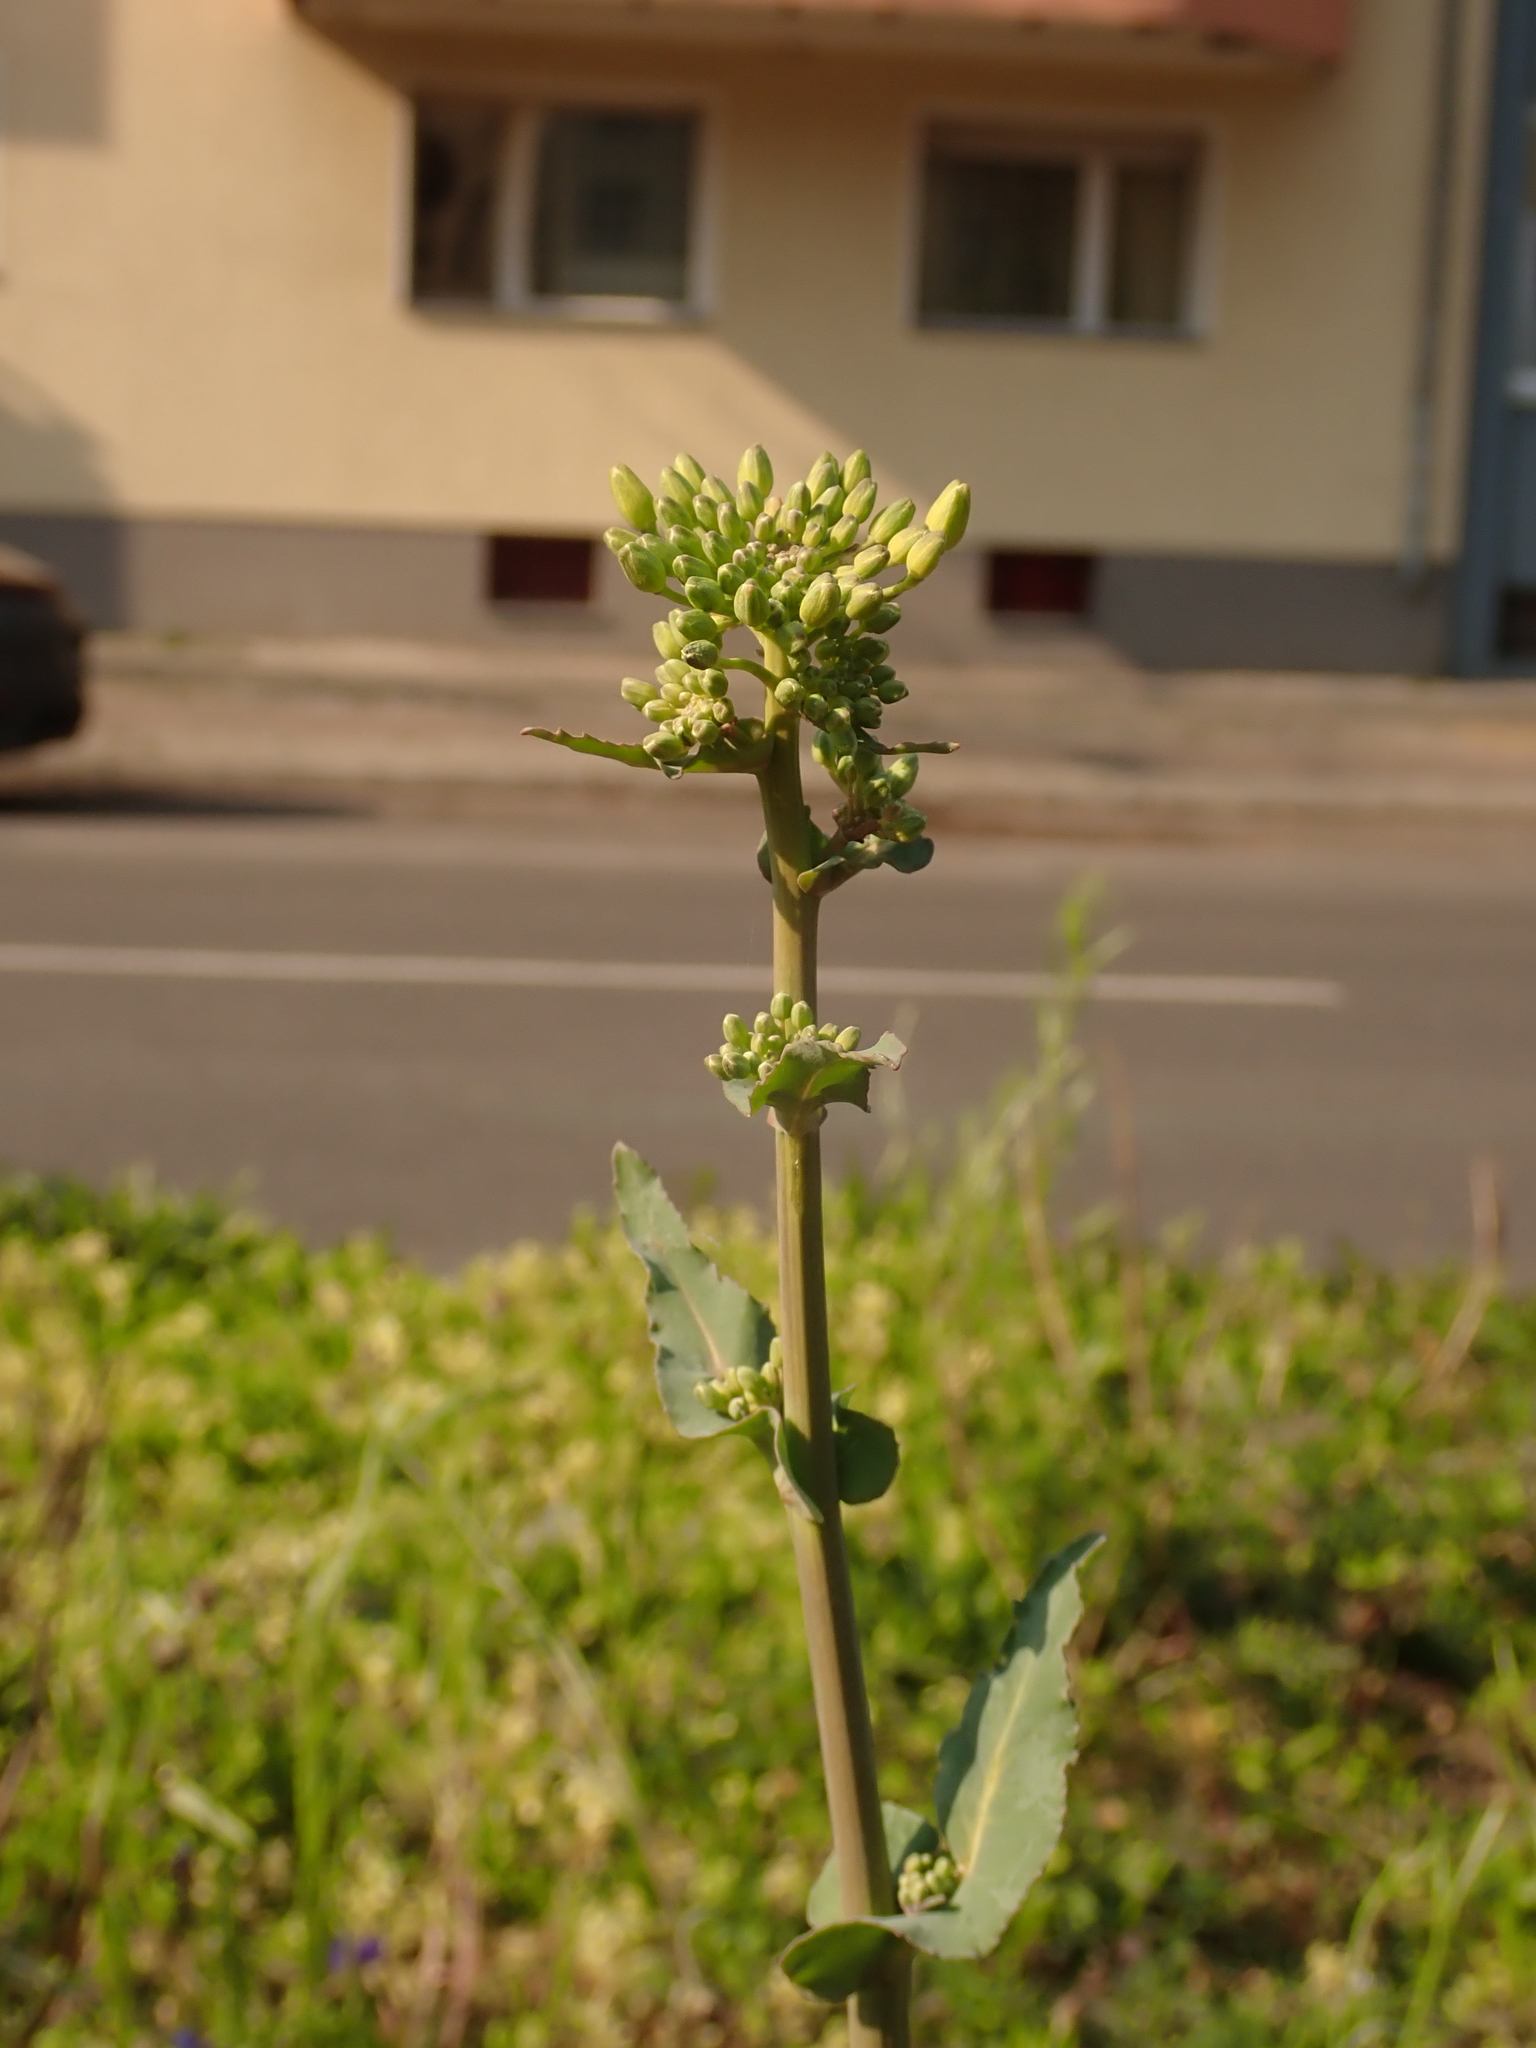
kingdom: Plantae
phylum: Tracheophyta
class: Magnoliopsida
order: Brassicales
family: Brassicaceae
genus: Brassica
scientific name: Brassica napus
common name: Rape
